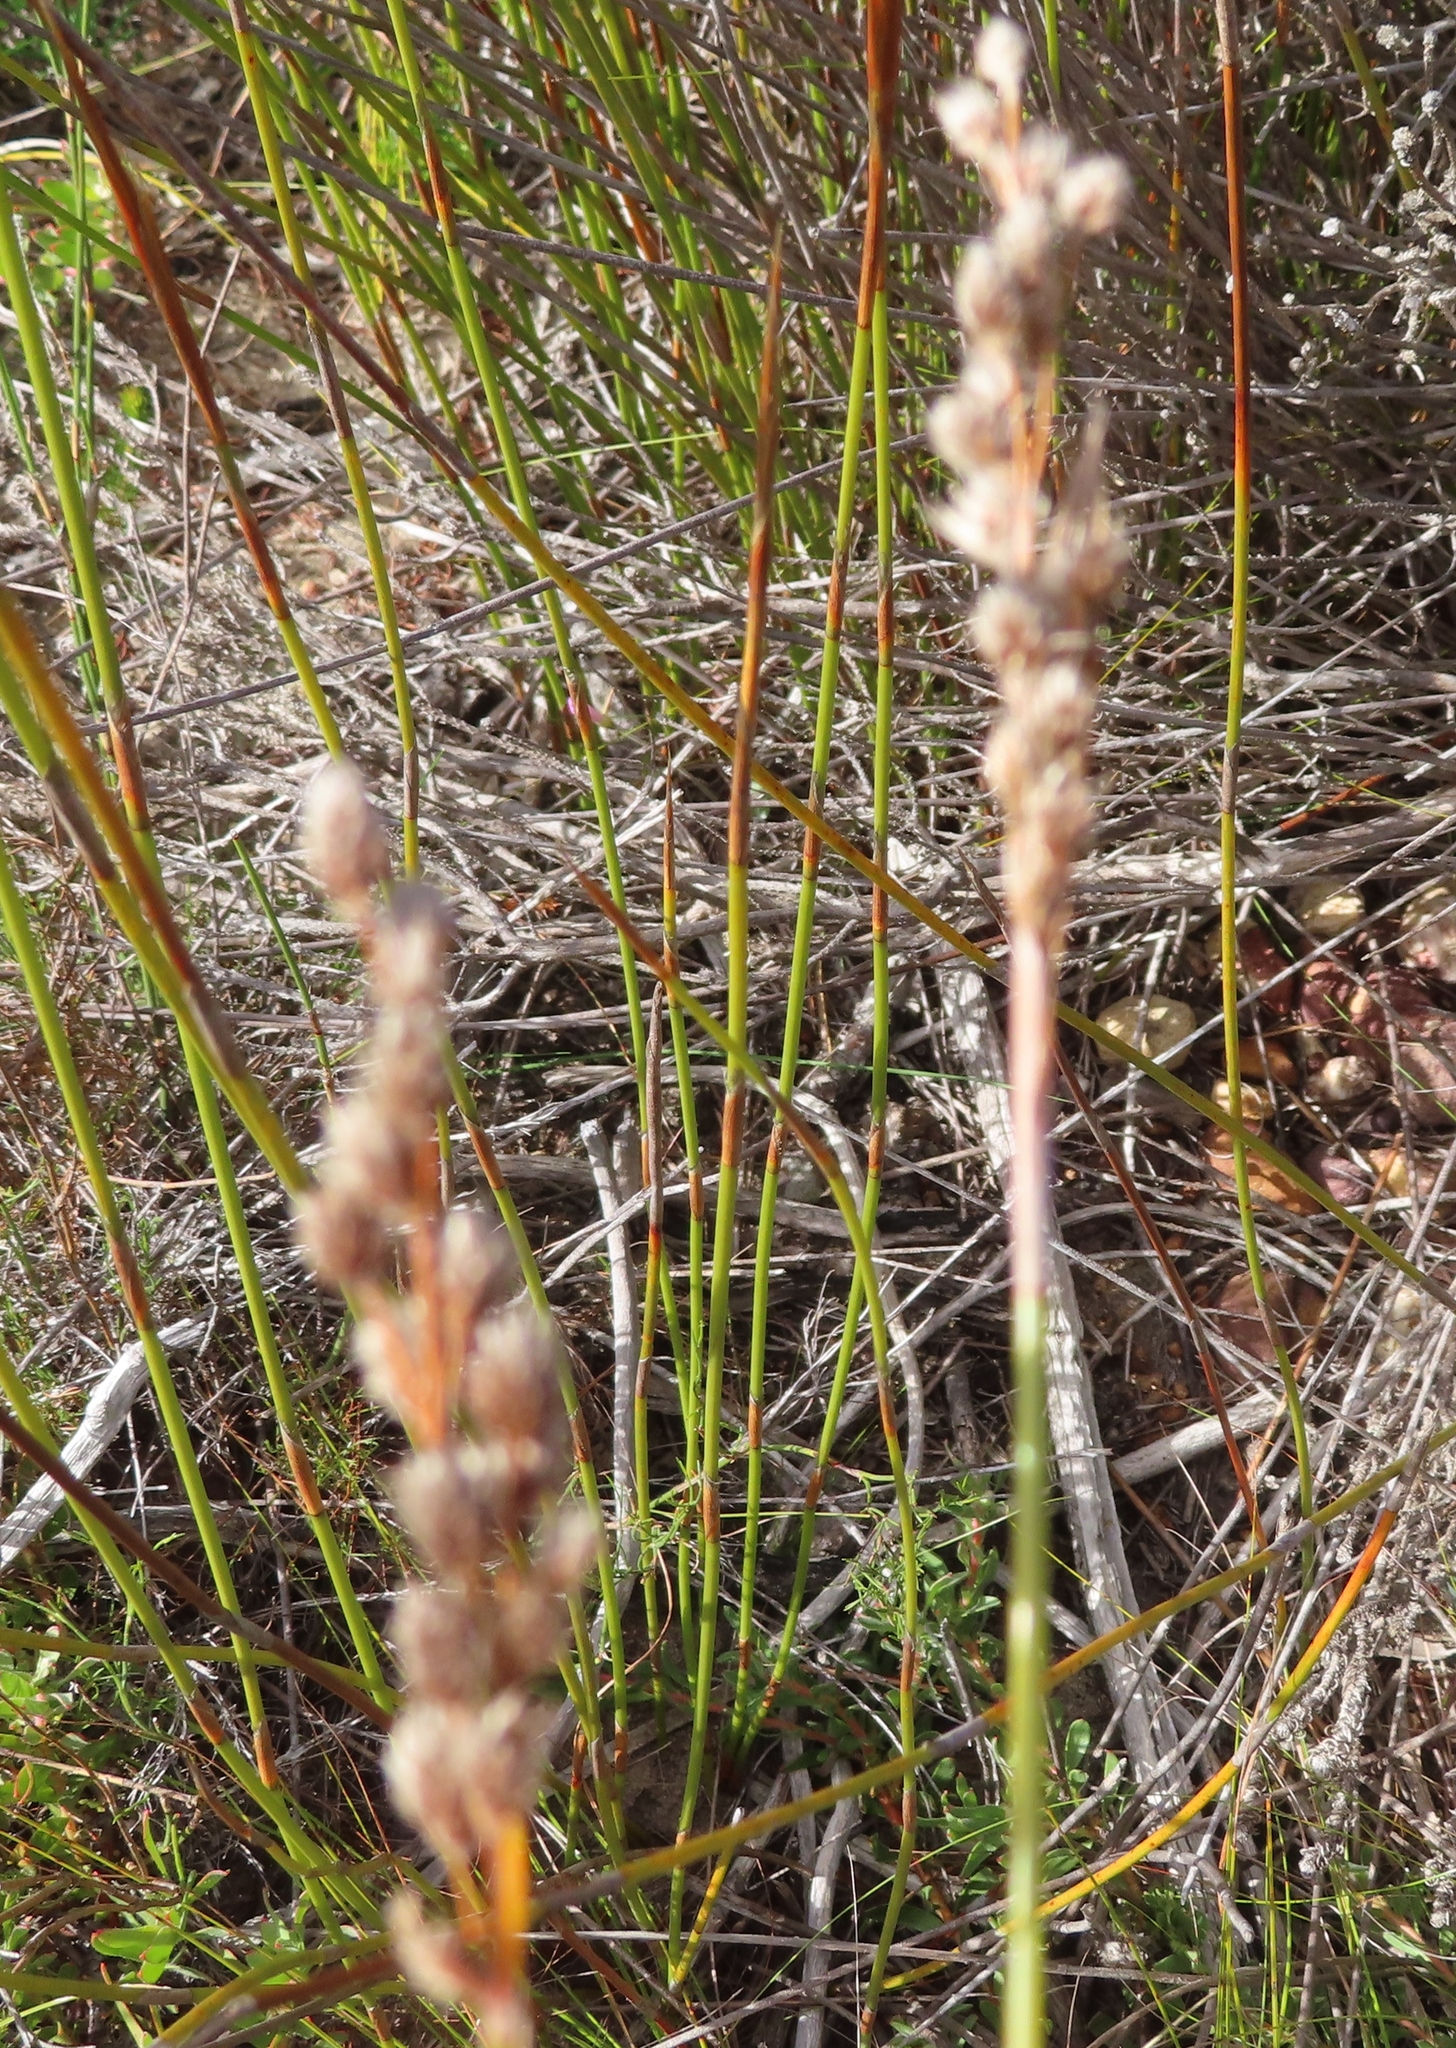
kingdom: Plantae
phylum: Tracheophyta
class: Liliopsida
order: Poales
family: Restionaceae
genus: Hypodiscus
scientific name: Hypodiscus argenteus
